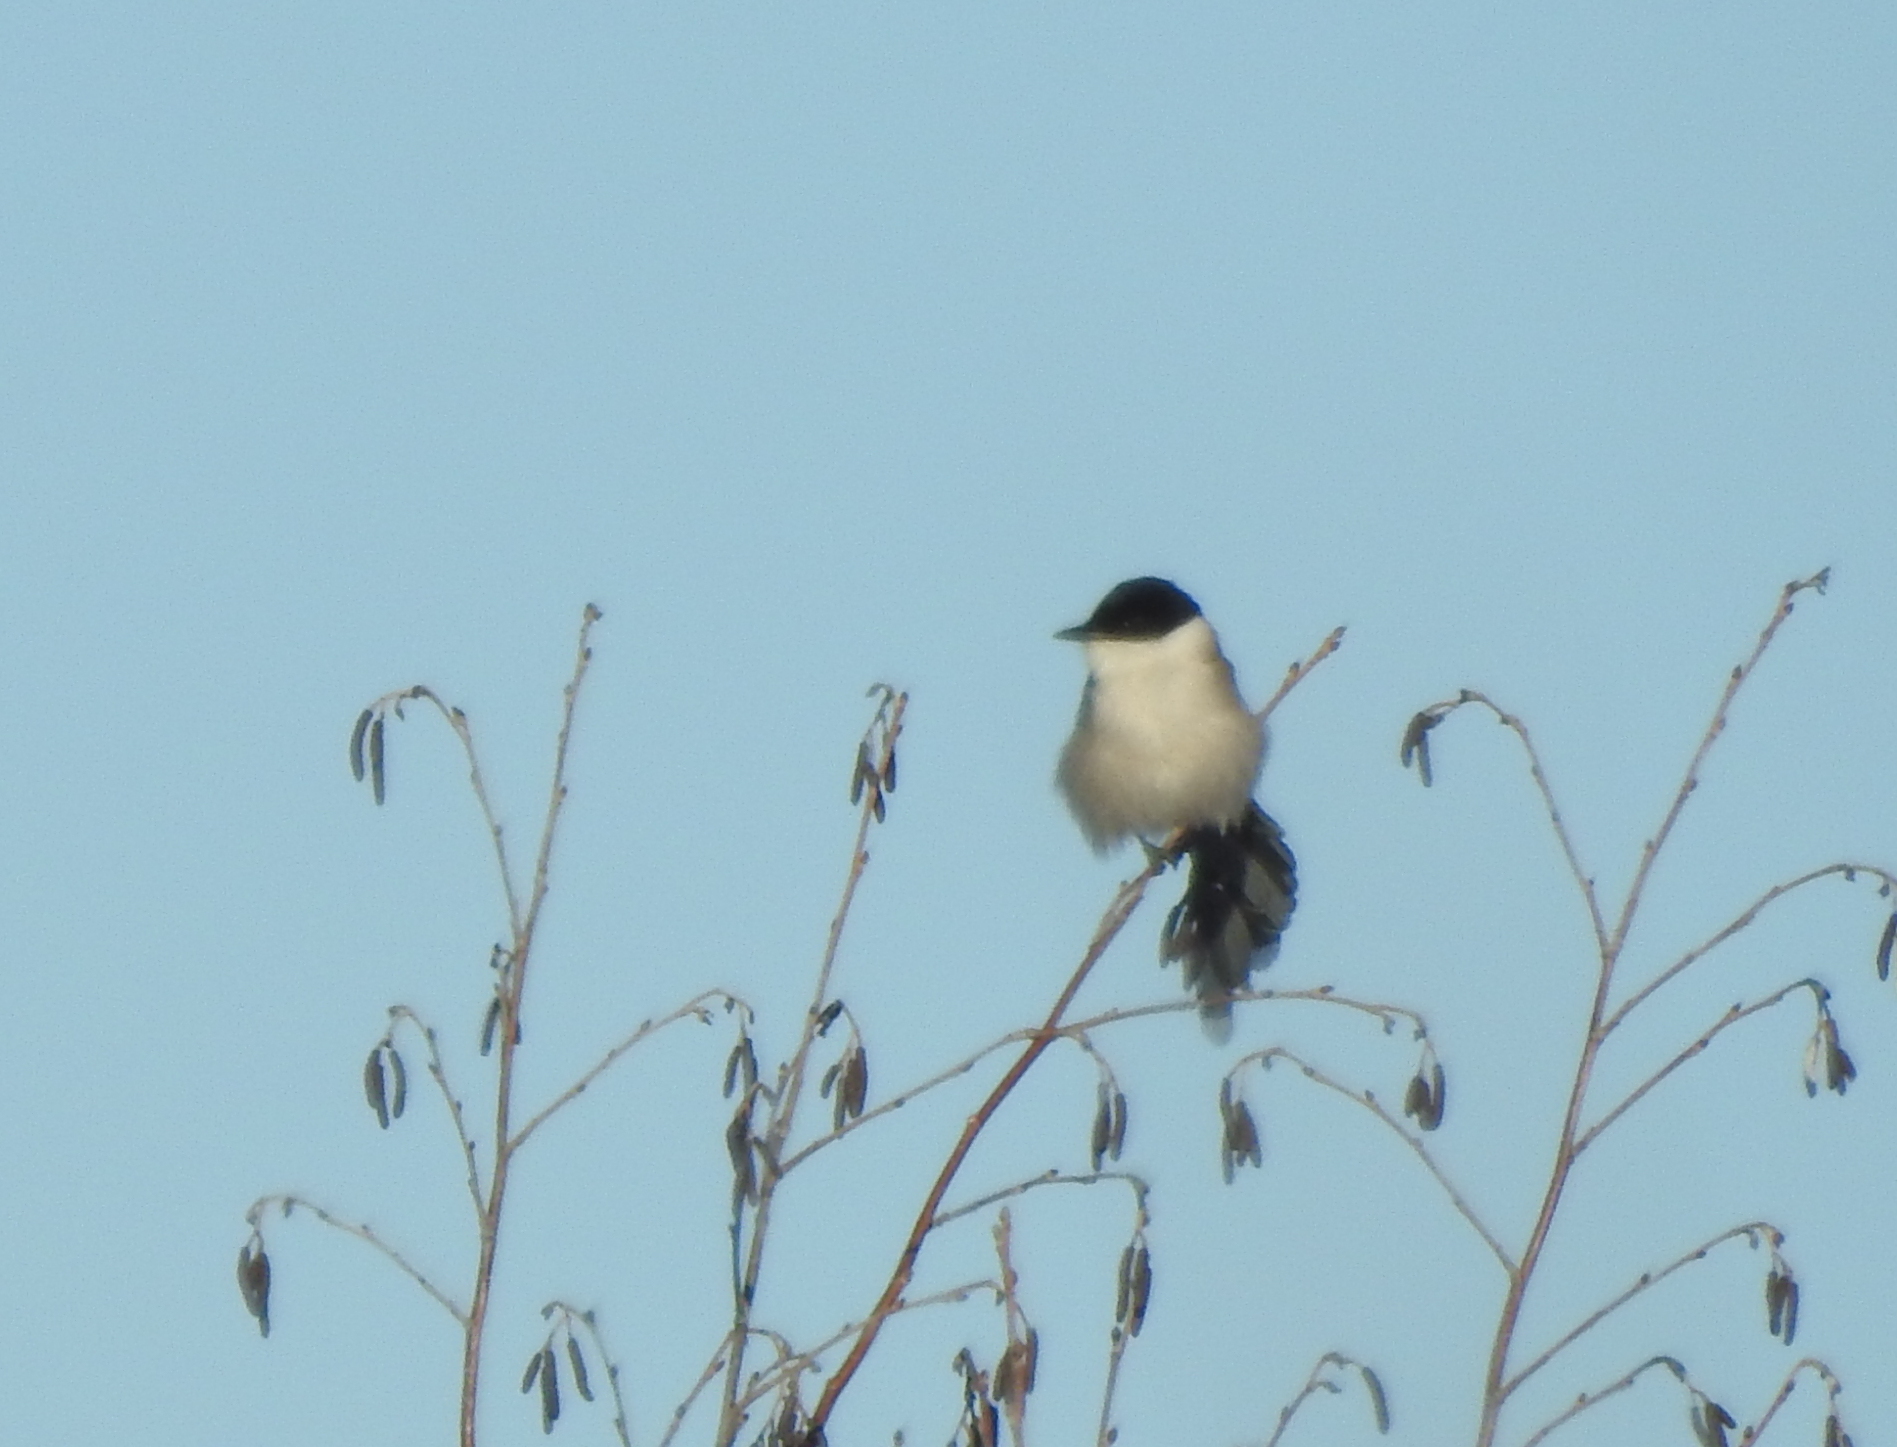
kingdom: Animalia
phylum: Chordata
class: Aves
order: Passeriformes
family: Corvidae
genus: Cyanopica
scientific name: Cyanopica cyanus
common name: Azure-winged magpie
